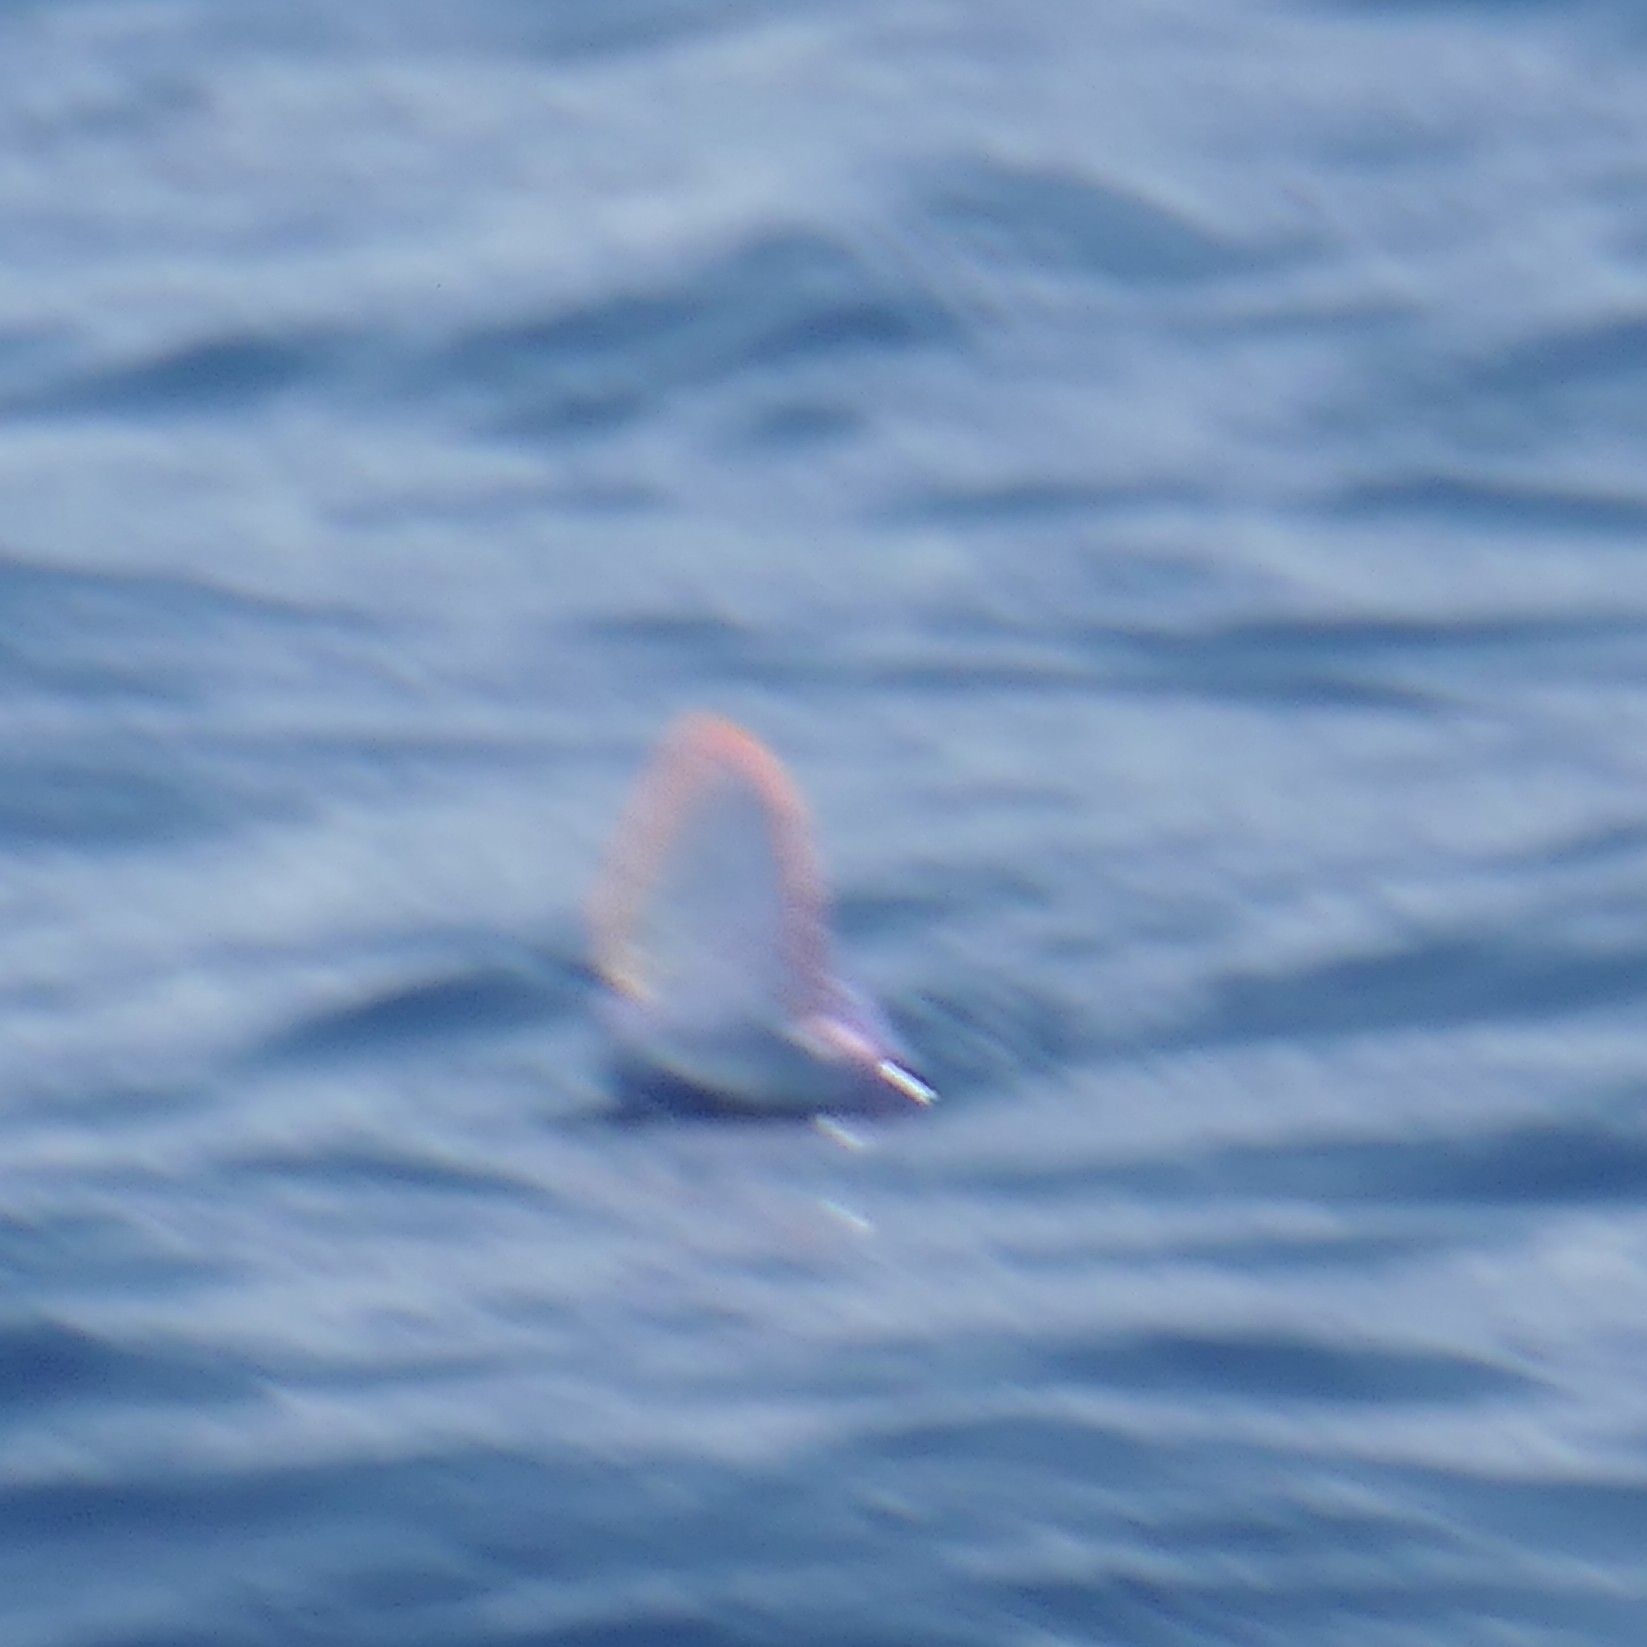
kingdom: Animalia
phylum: Cnidaria
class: Hydrozoa
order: Siphonophorae
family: Physaliidae
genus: Physalia
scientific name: Physalia physalis
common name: Portuguese man-of-war
